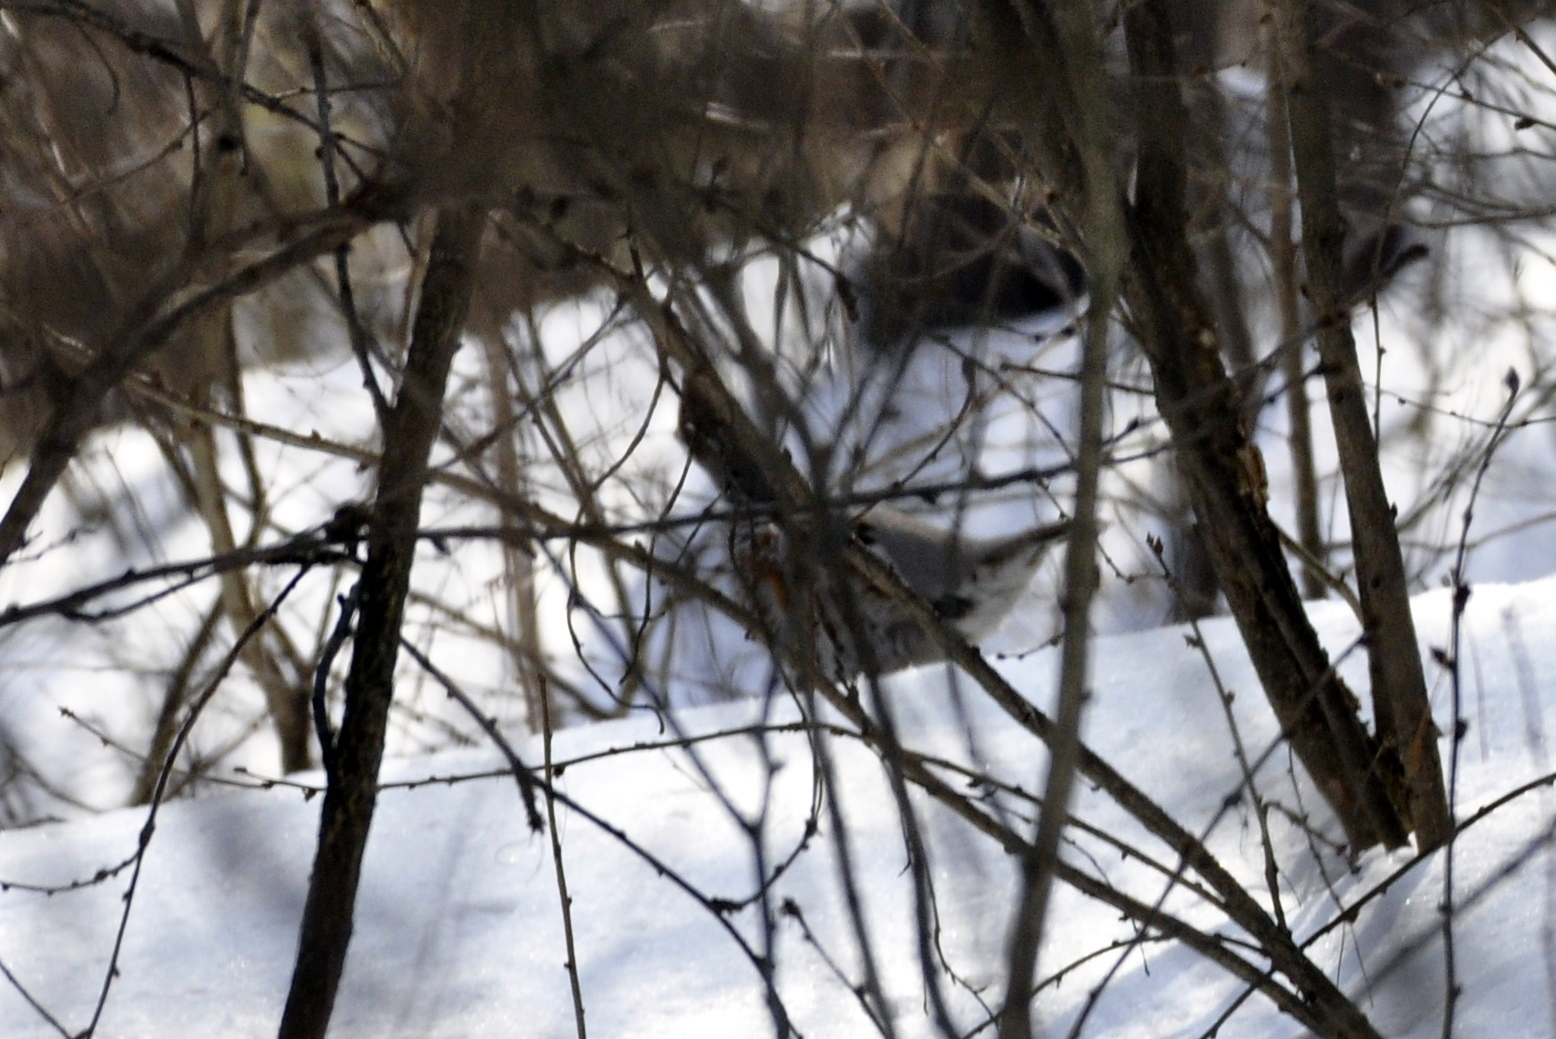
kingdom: Animalia
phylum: Chordata
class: Aves
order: Galliformes
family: Phasianidae
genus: Tetrastes
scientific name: Tetrastes bonasia
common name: Hazel grouse
